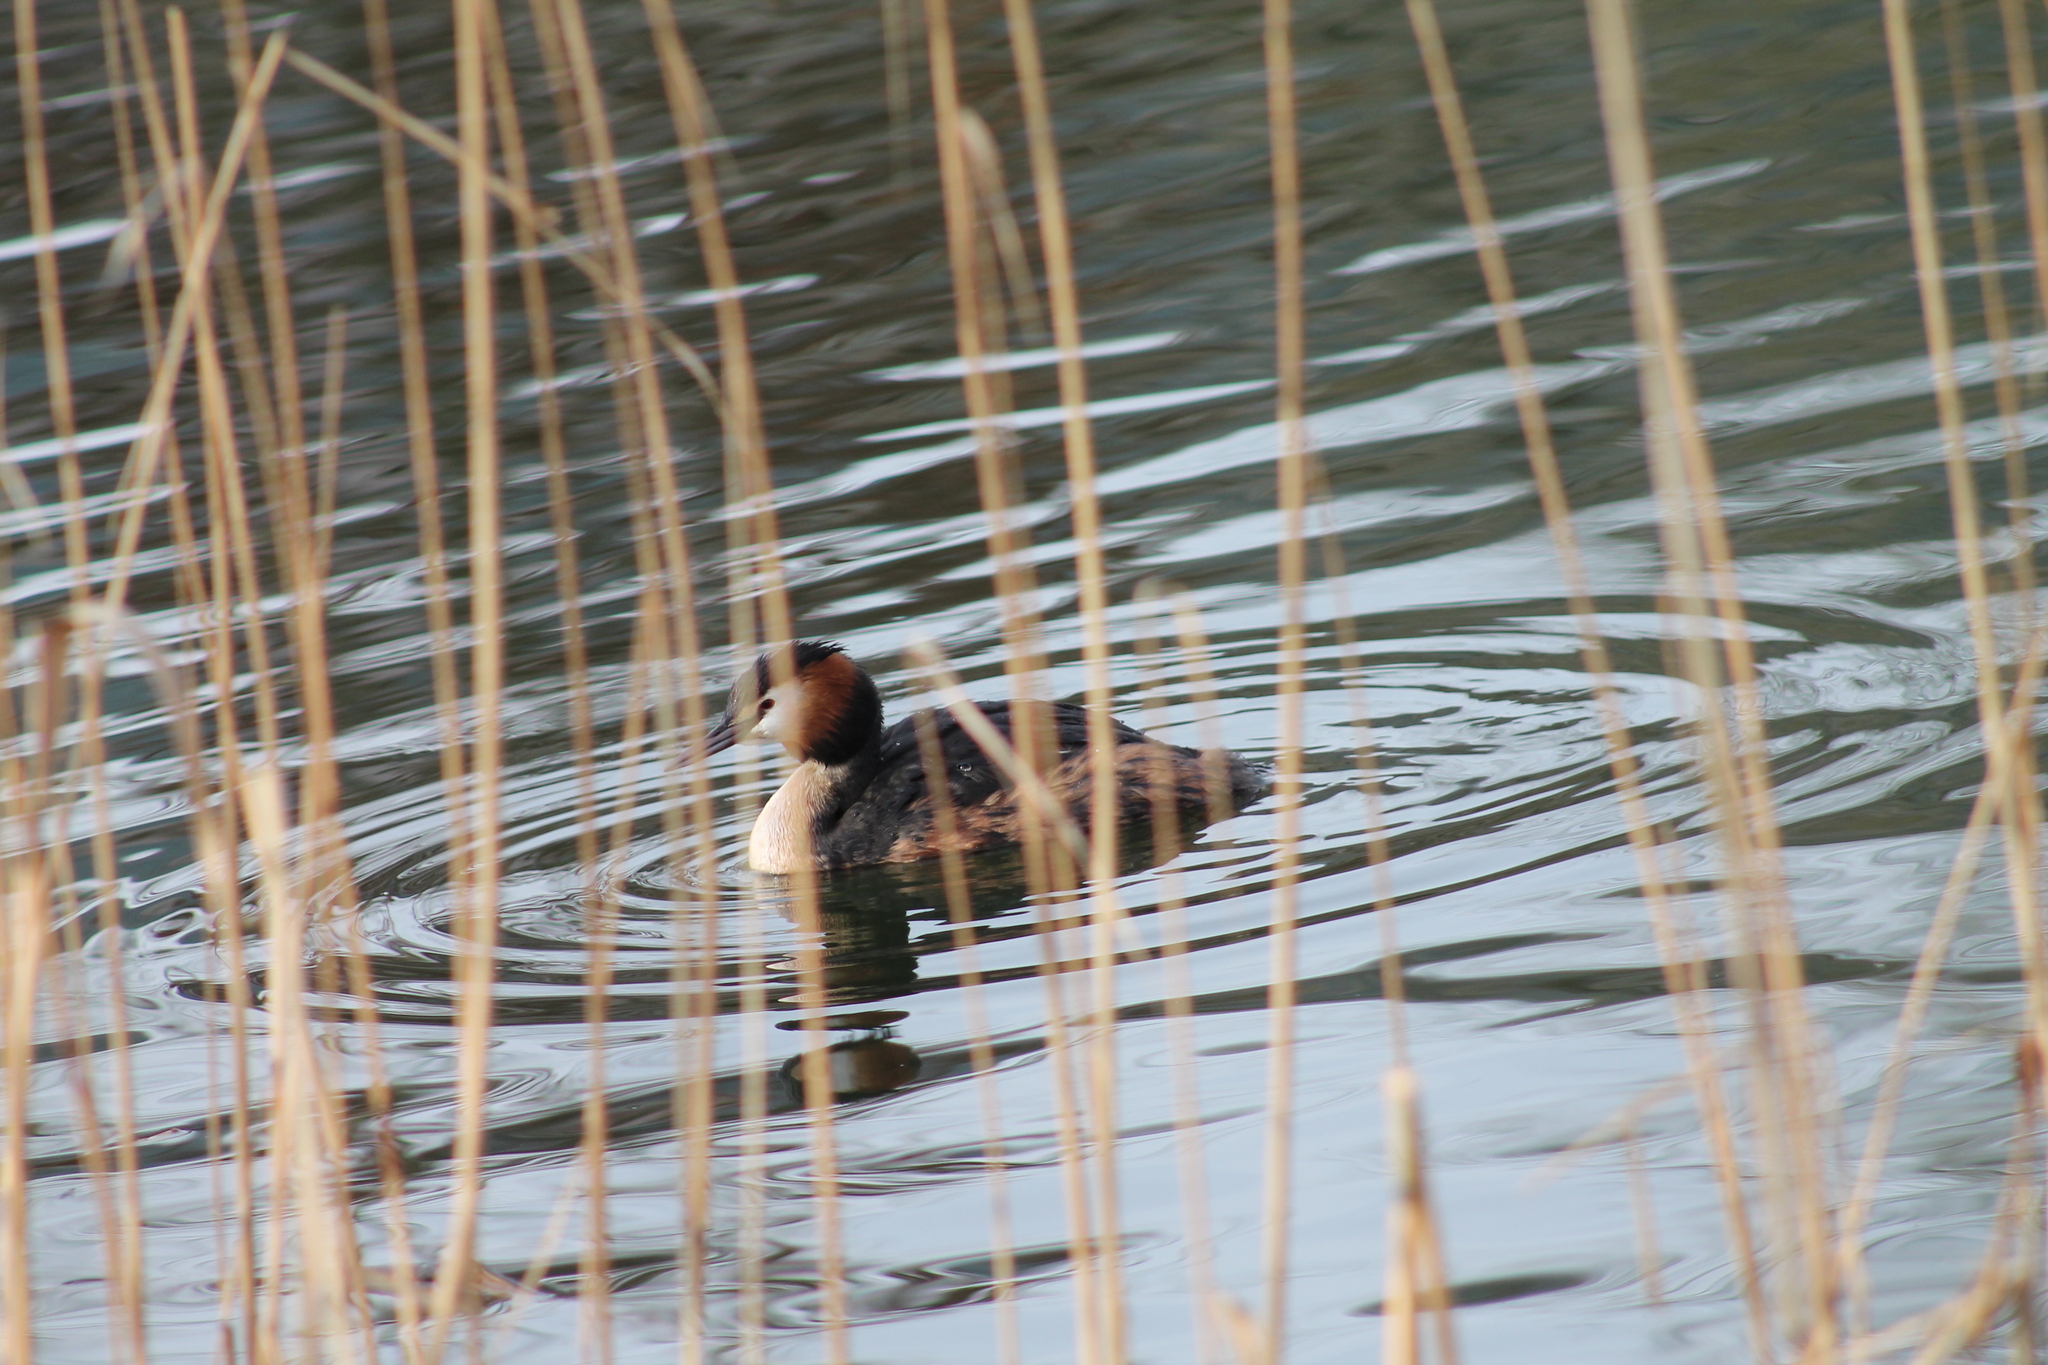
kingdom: Animalia
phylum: Chordata
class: Aves
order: Podicipediformes
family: Podicipedidae
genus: Podiceps
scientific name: Podiceps cristatus
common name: Great crested grebe
